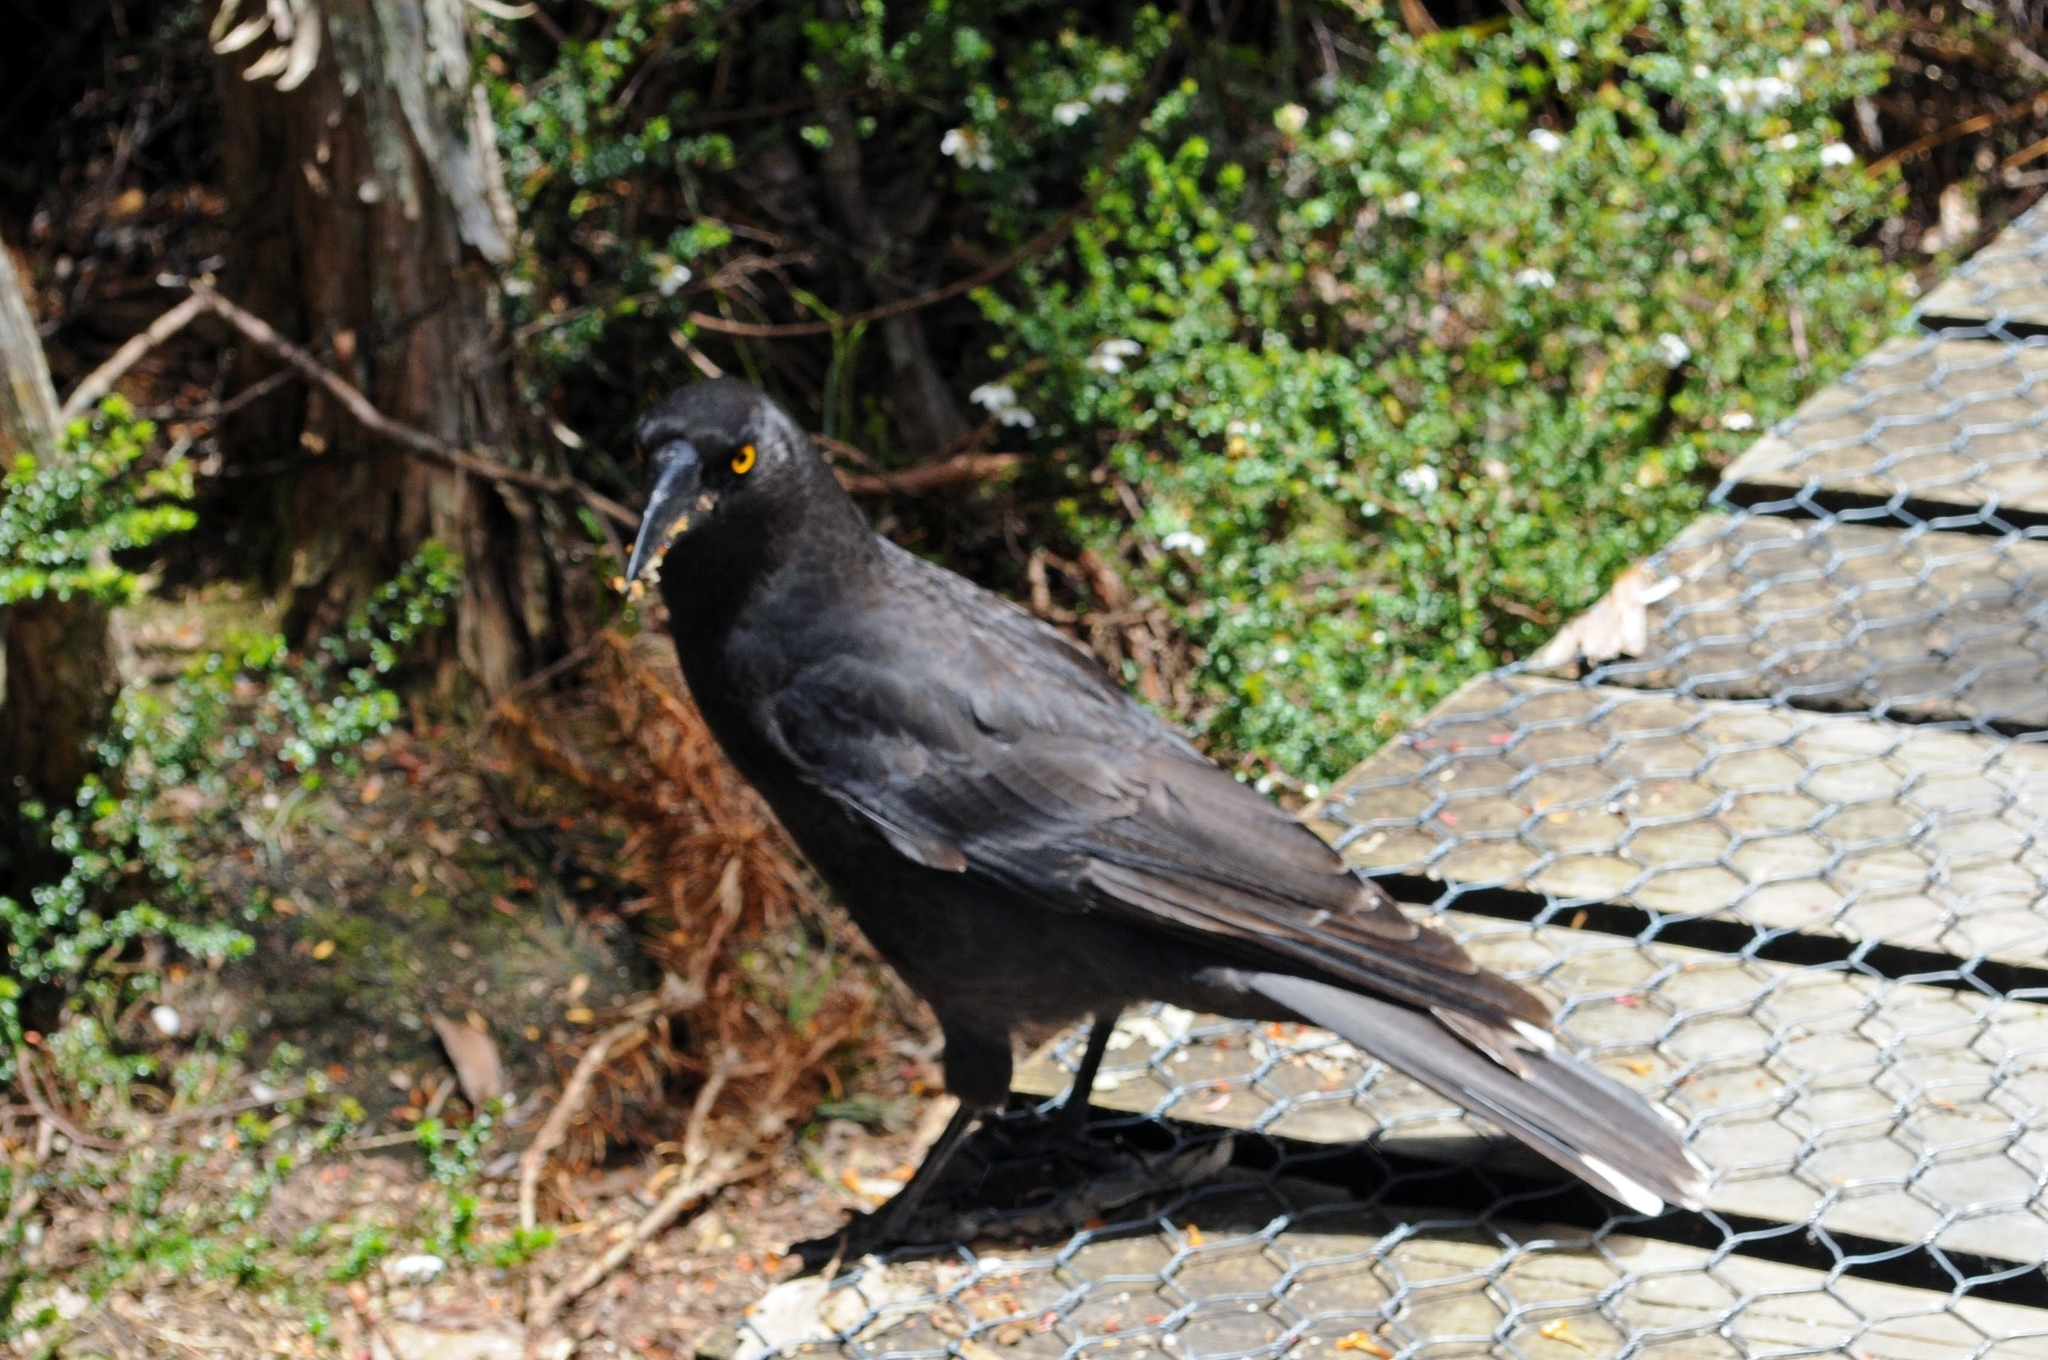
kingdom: Animalia
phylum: Chordata
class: Aves
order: Passeriformes
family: Cracticidae
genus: Strepera
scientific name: Strepera fuliginosa
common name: Black currawong
